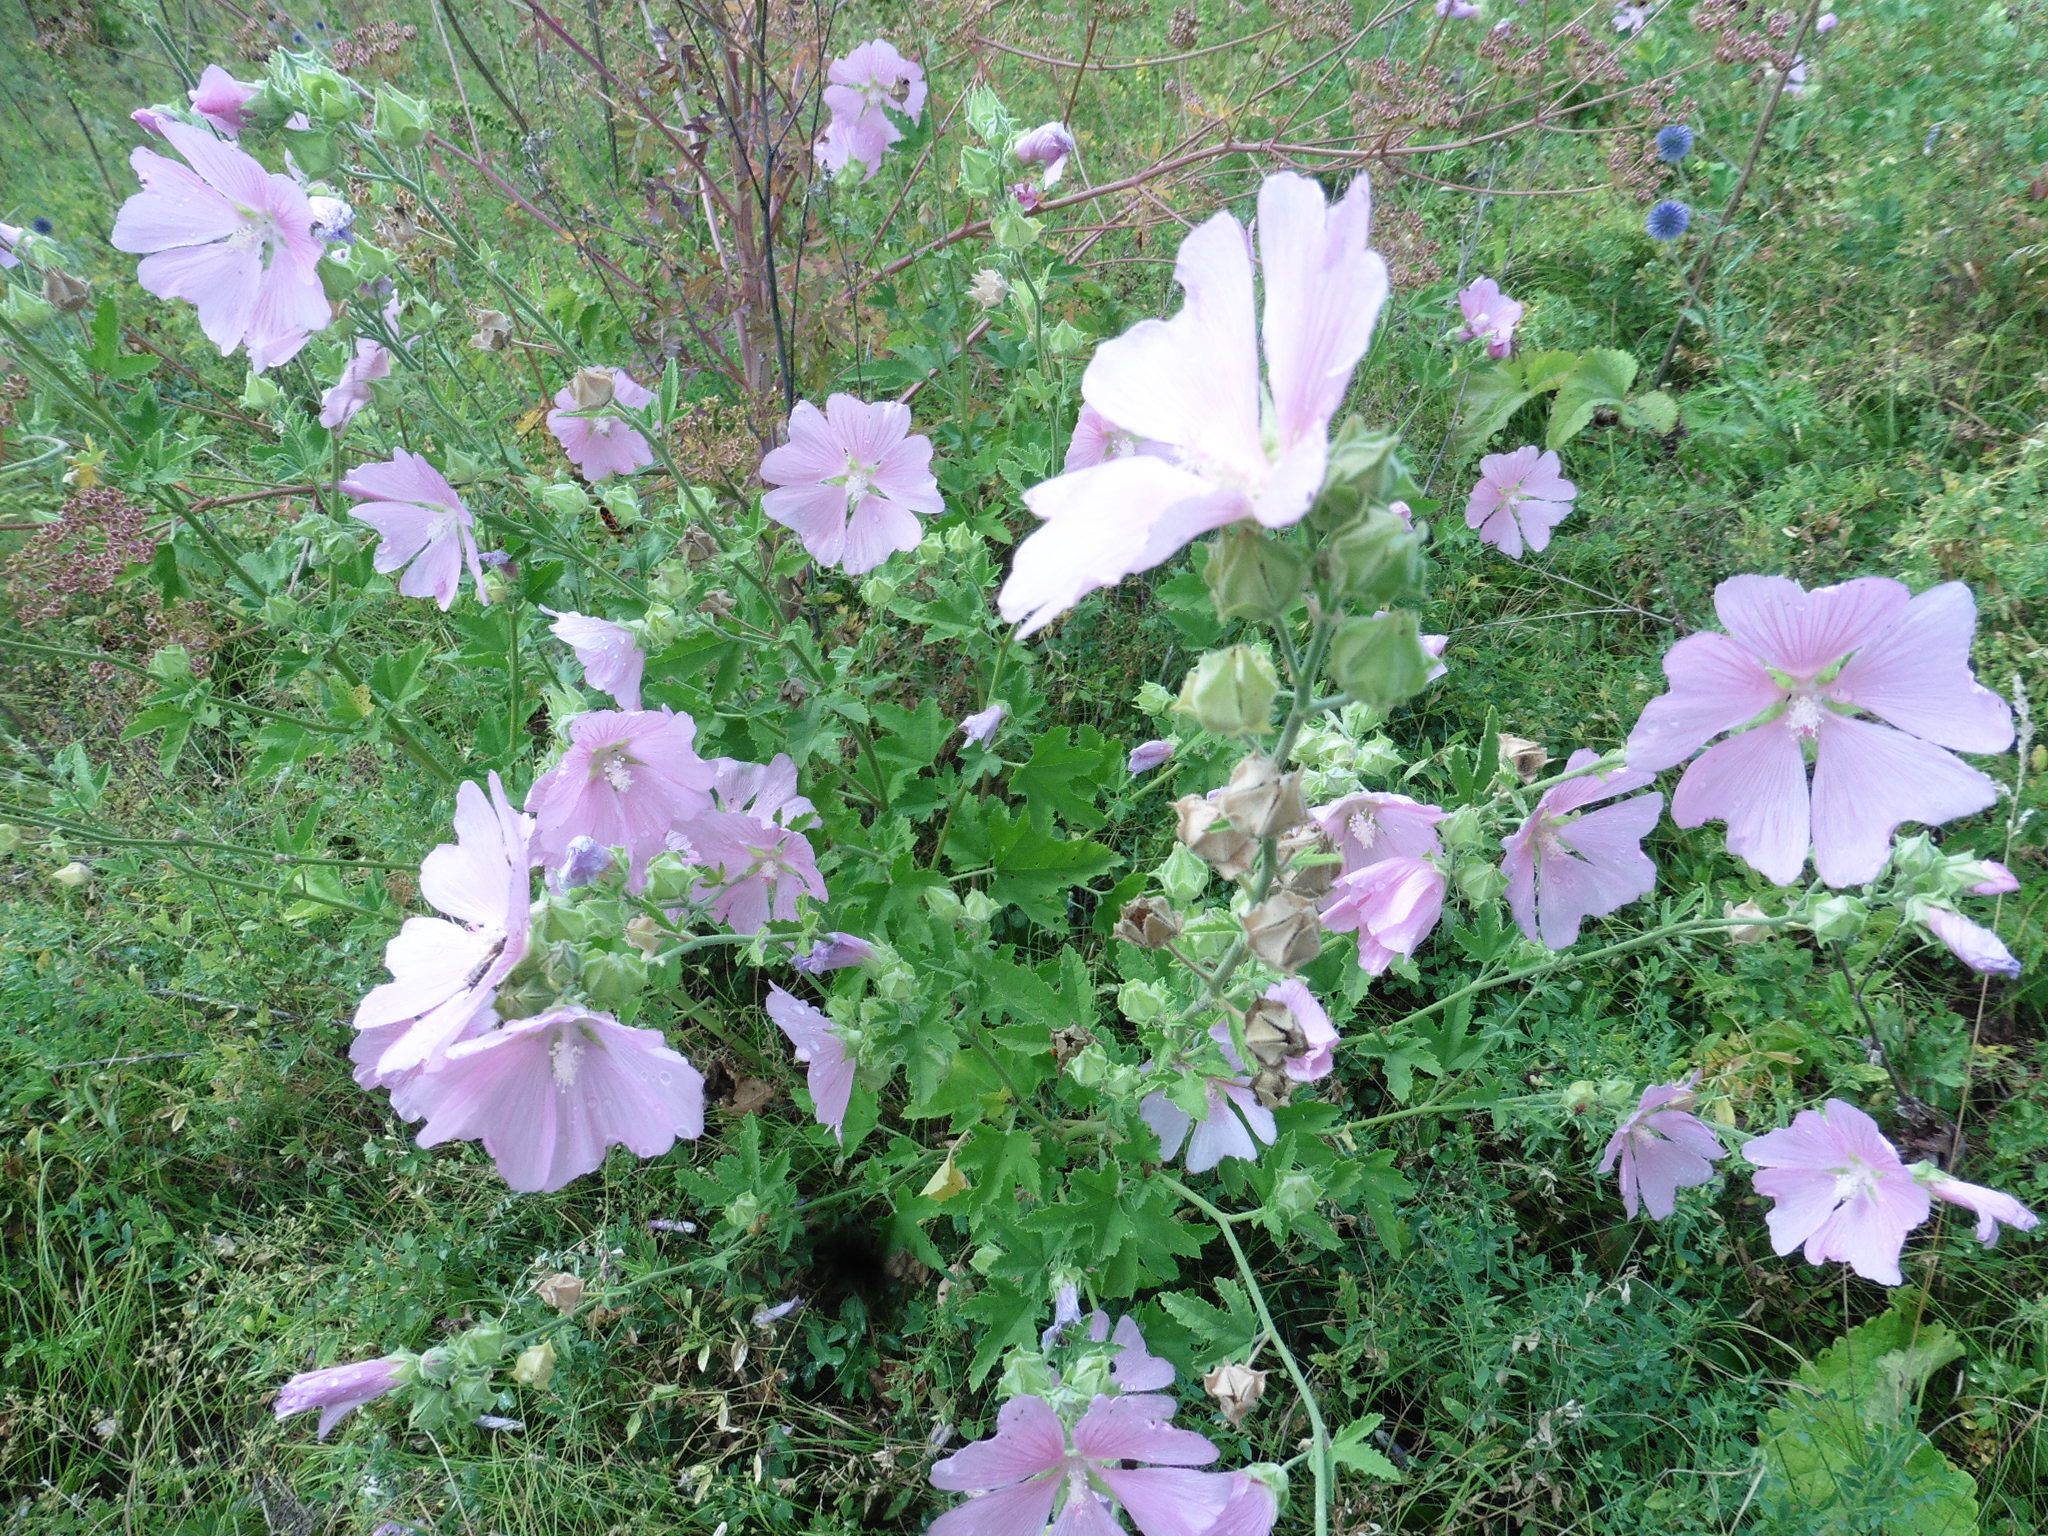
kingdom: Plantae
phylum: Tracheophyta
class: Magnoliopsida
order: Malvales
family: Malvaceae
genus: Malva
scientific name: Malva thuringiaca
